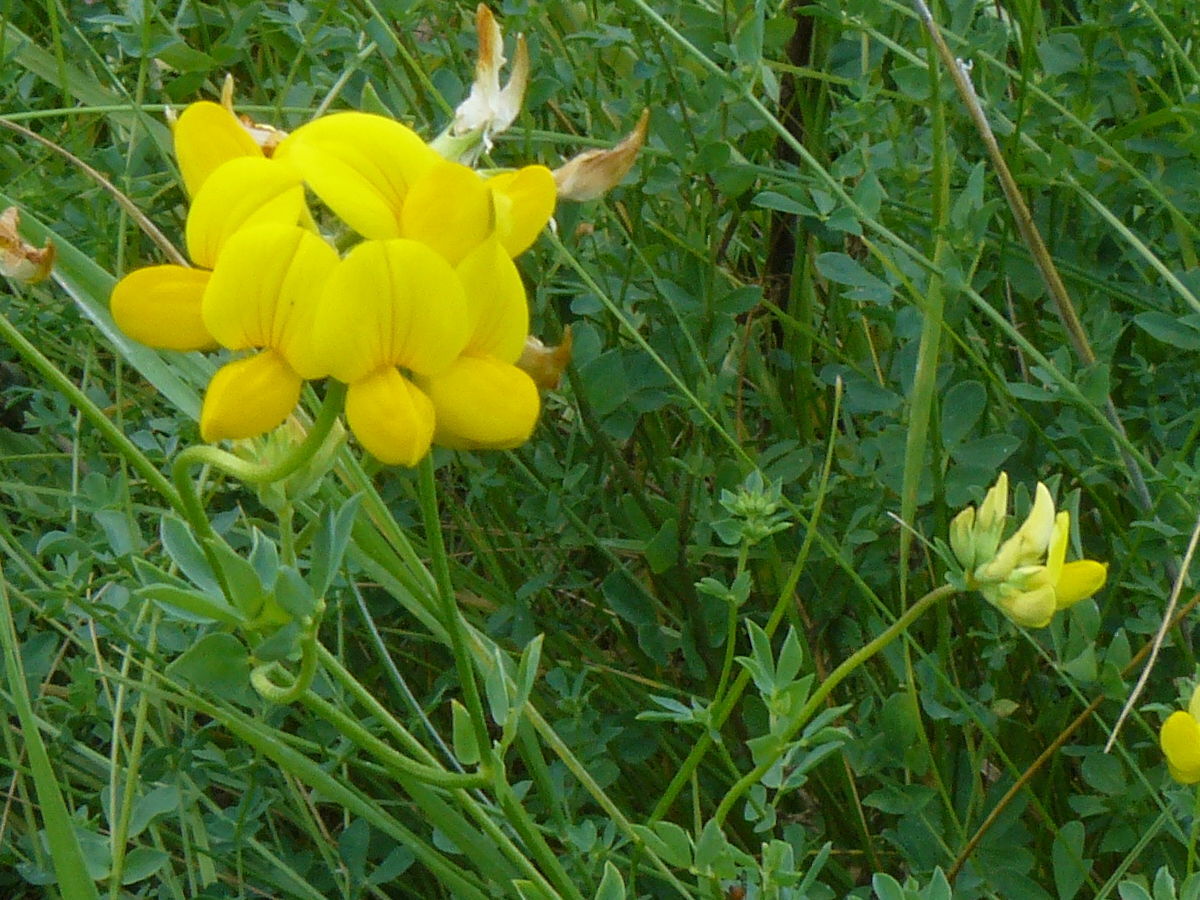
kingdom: Plantae
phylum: Tracheophyta
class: Magnoliopsida
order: Fabales
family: Fabaceae
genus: Lotus
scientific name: Lotus corniculatus
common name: Common bird's-foot-trefoil
